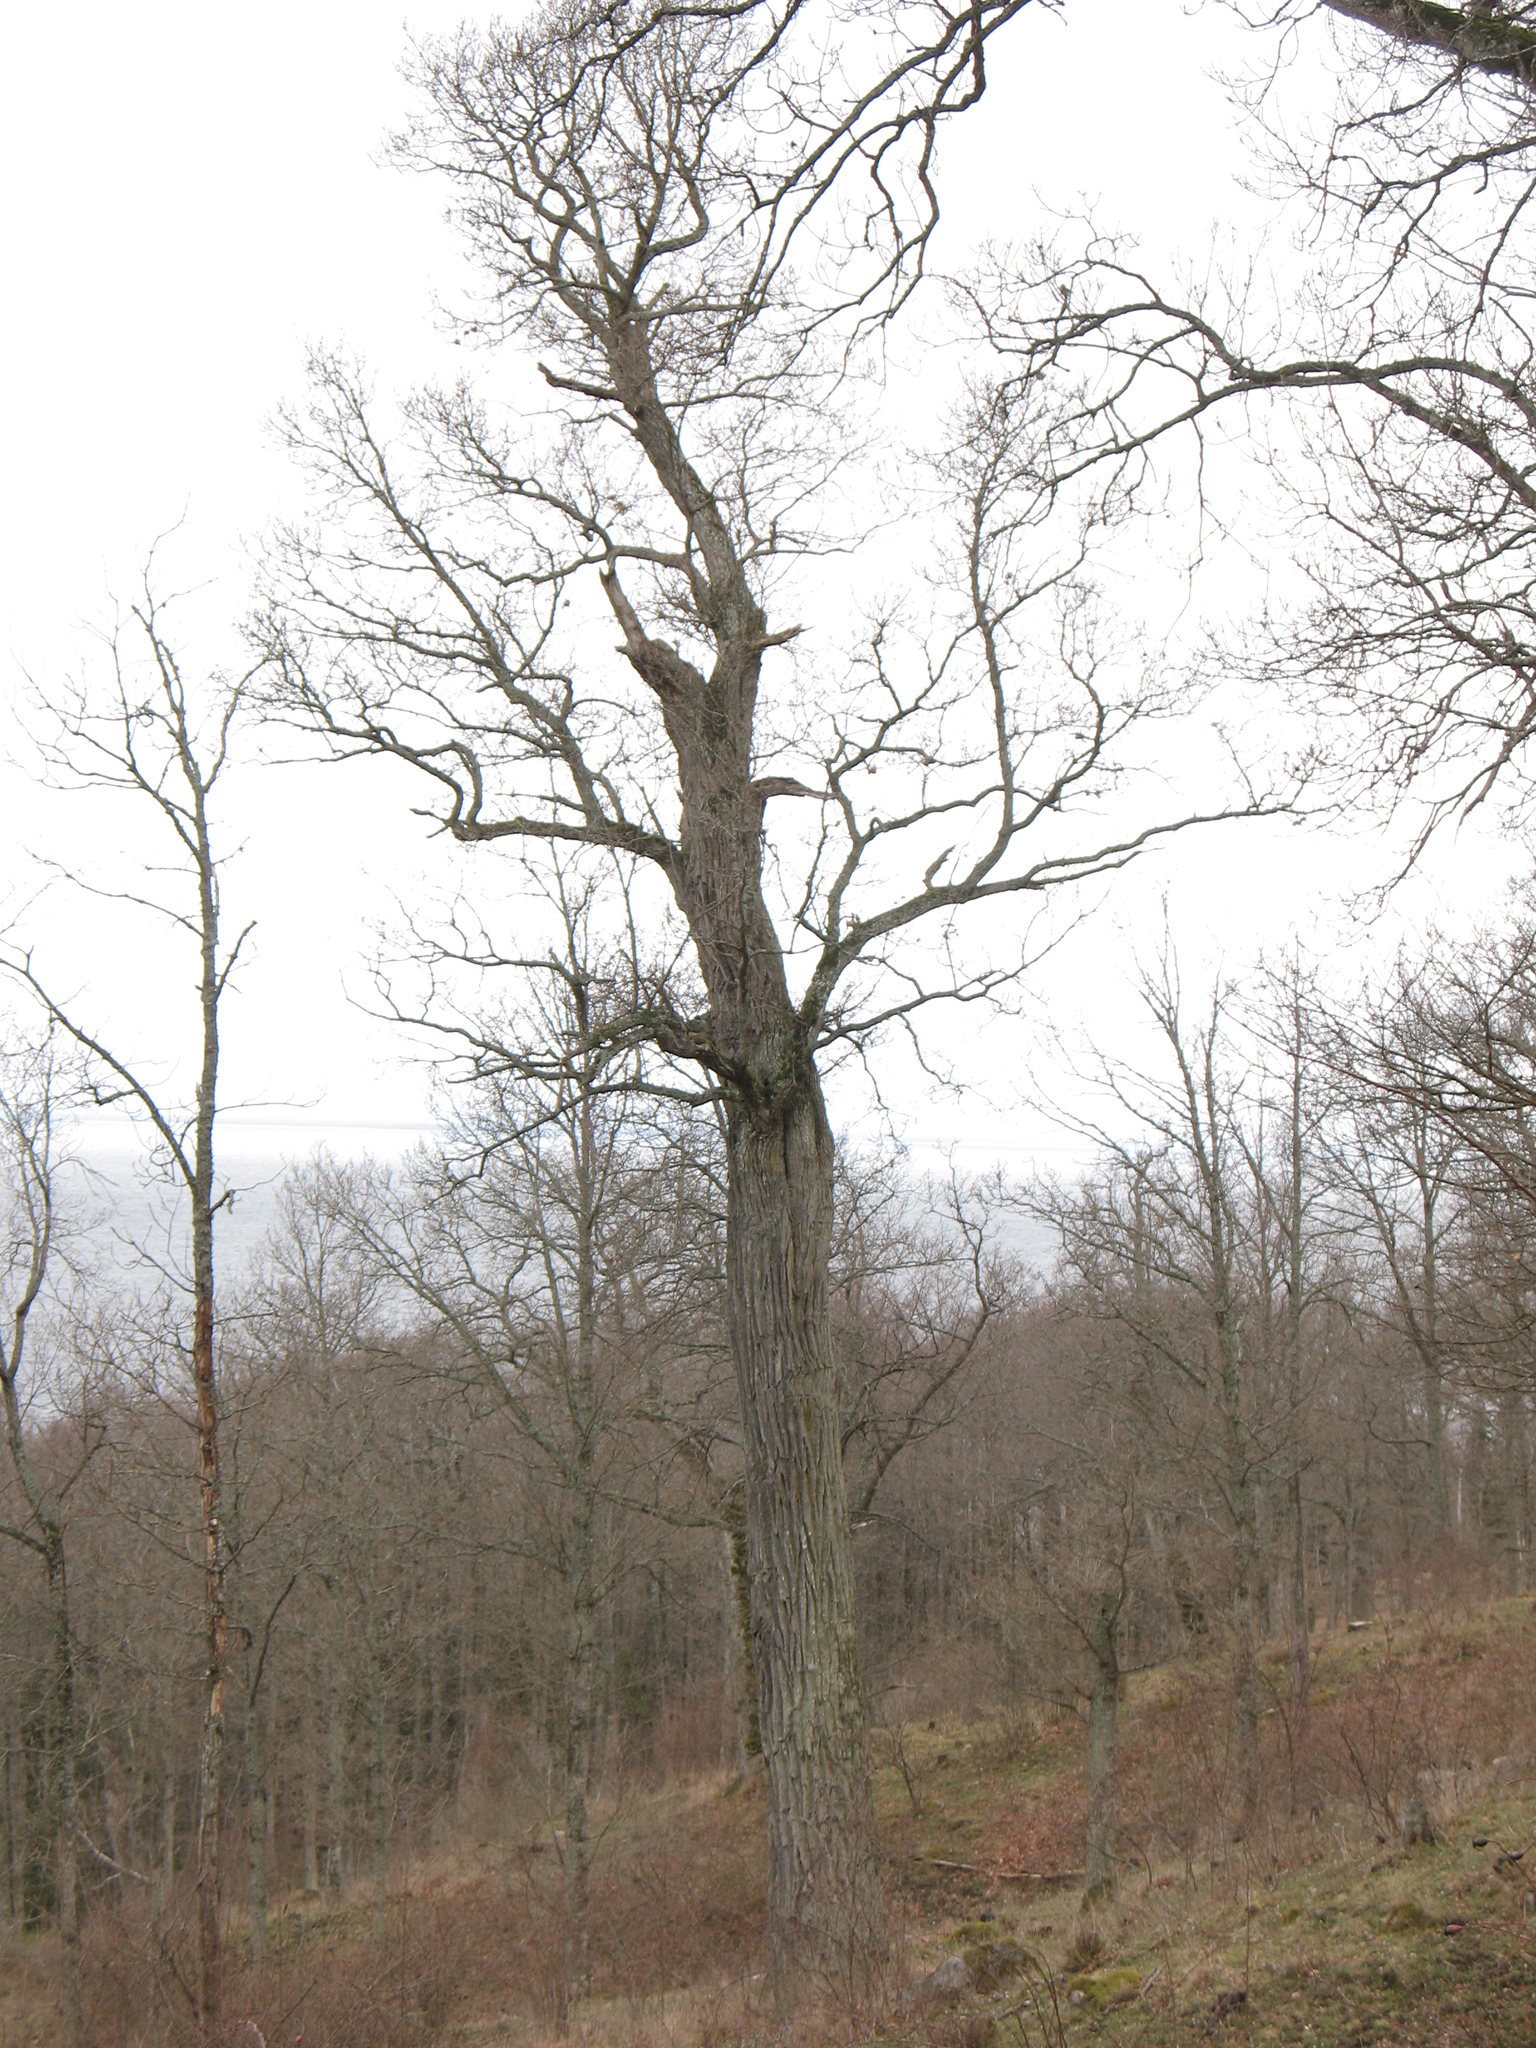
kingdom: Plantae
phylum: Tracheophyta
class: Magnoliopsida
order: Fagales
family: Fagaceae
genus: Quercus
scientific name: Quercus robur
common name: Pedunculate oak
